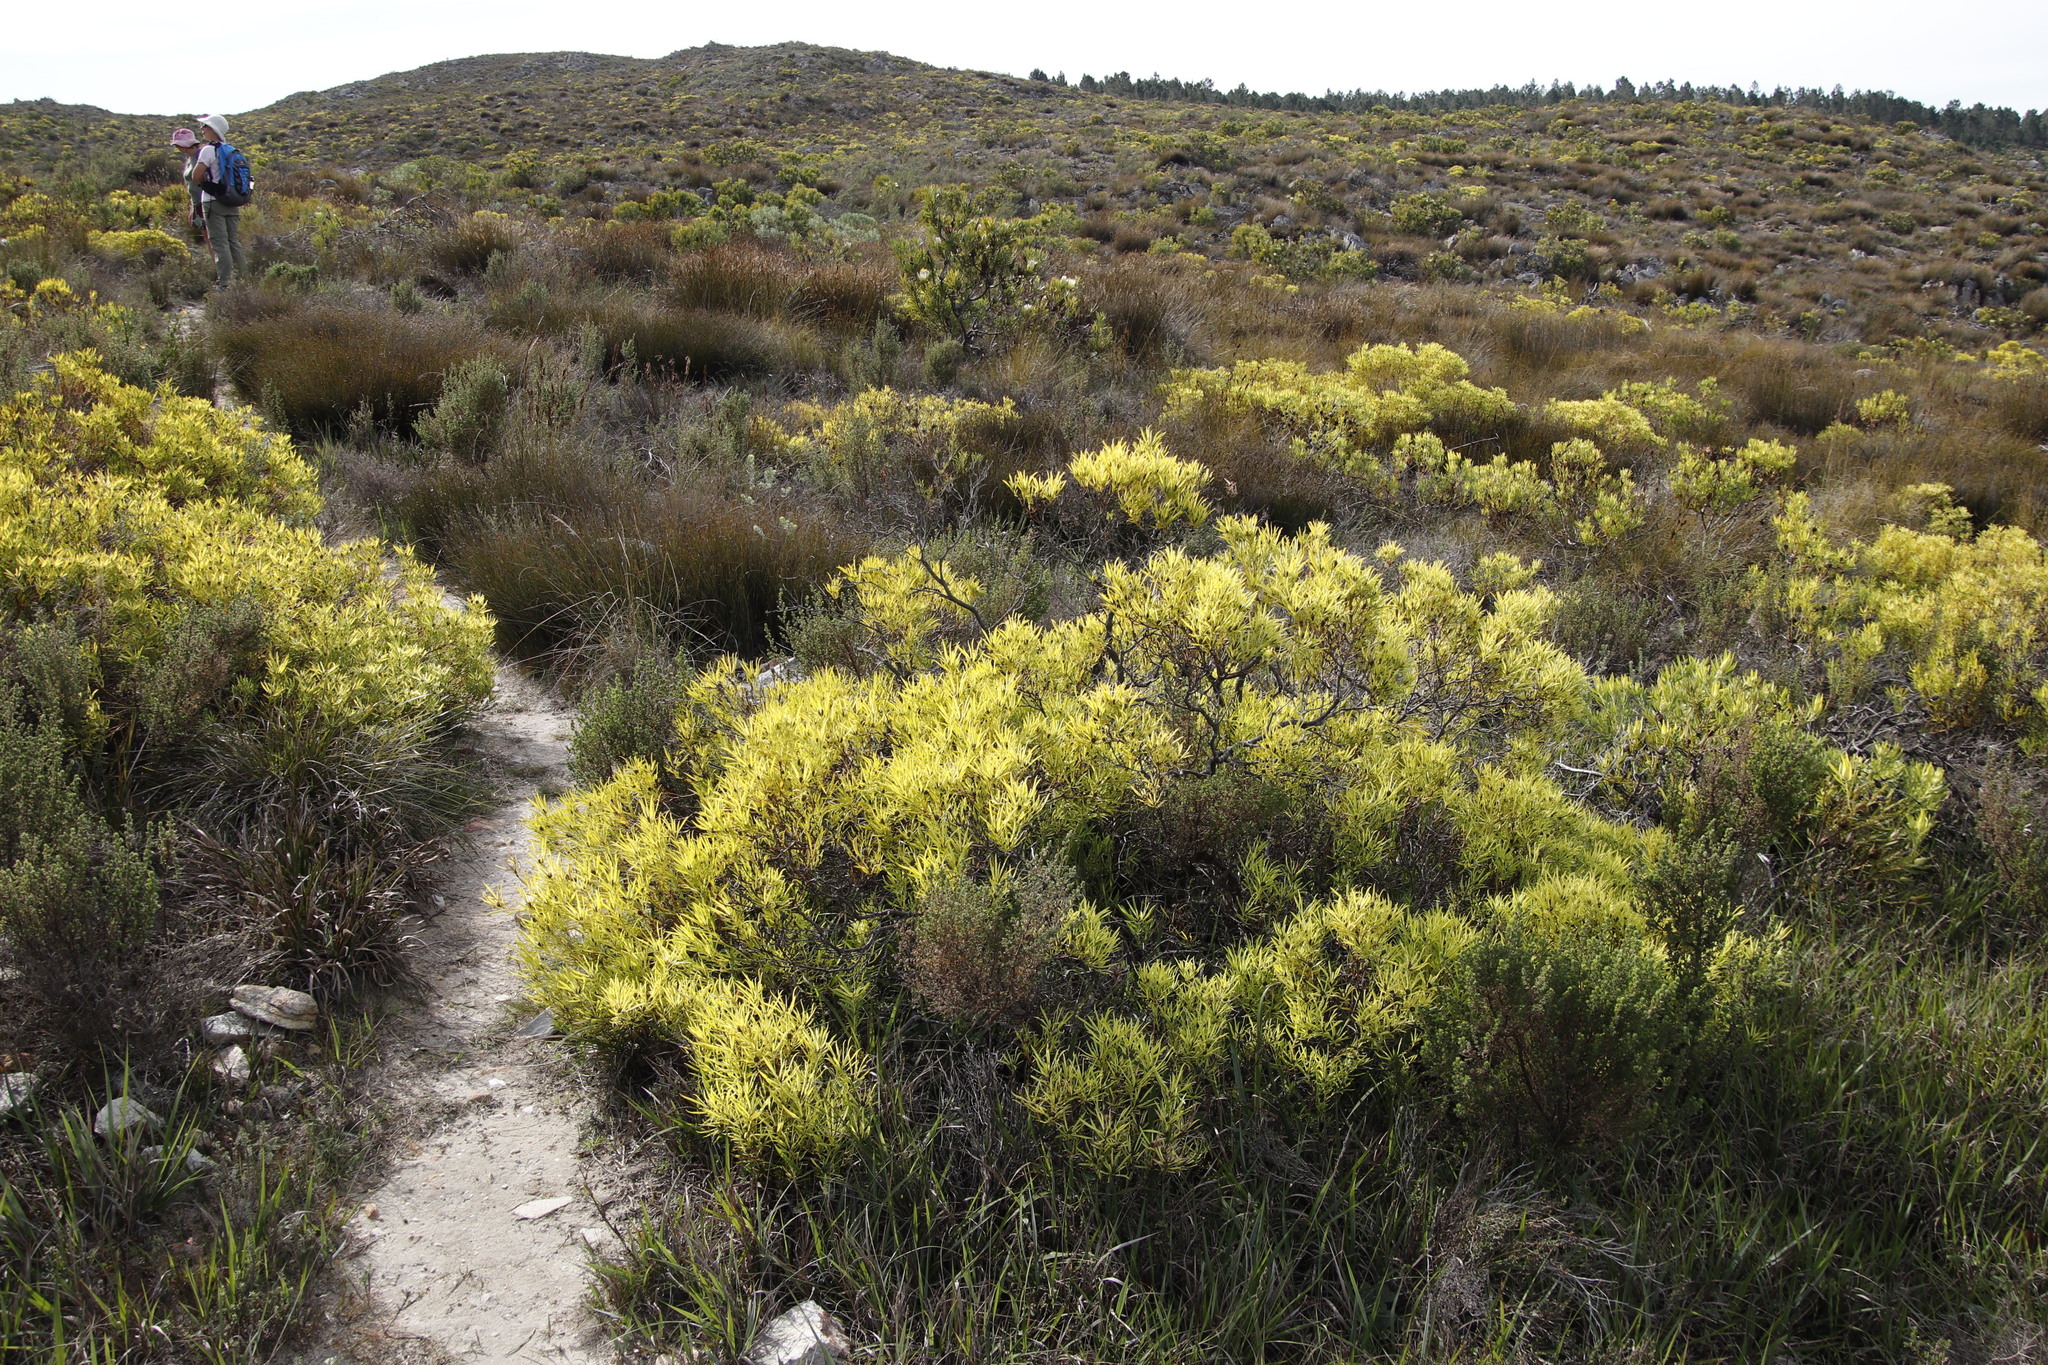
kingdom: Plantae
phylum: Tracheophyta
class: Magnoliopsida
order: Proteales
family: Proteaceae
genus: Leucadendron
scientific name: Leucadendron salignum
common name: Common sunshine conebush
